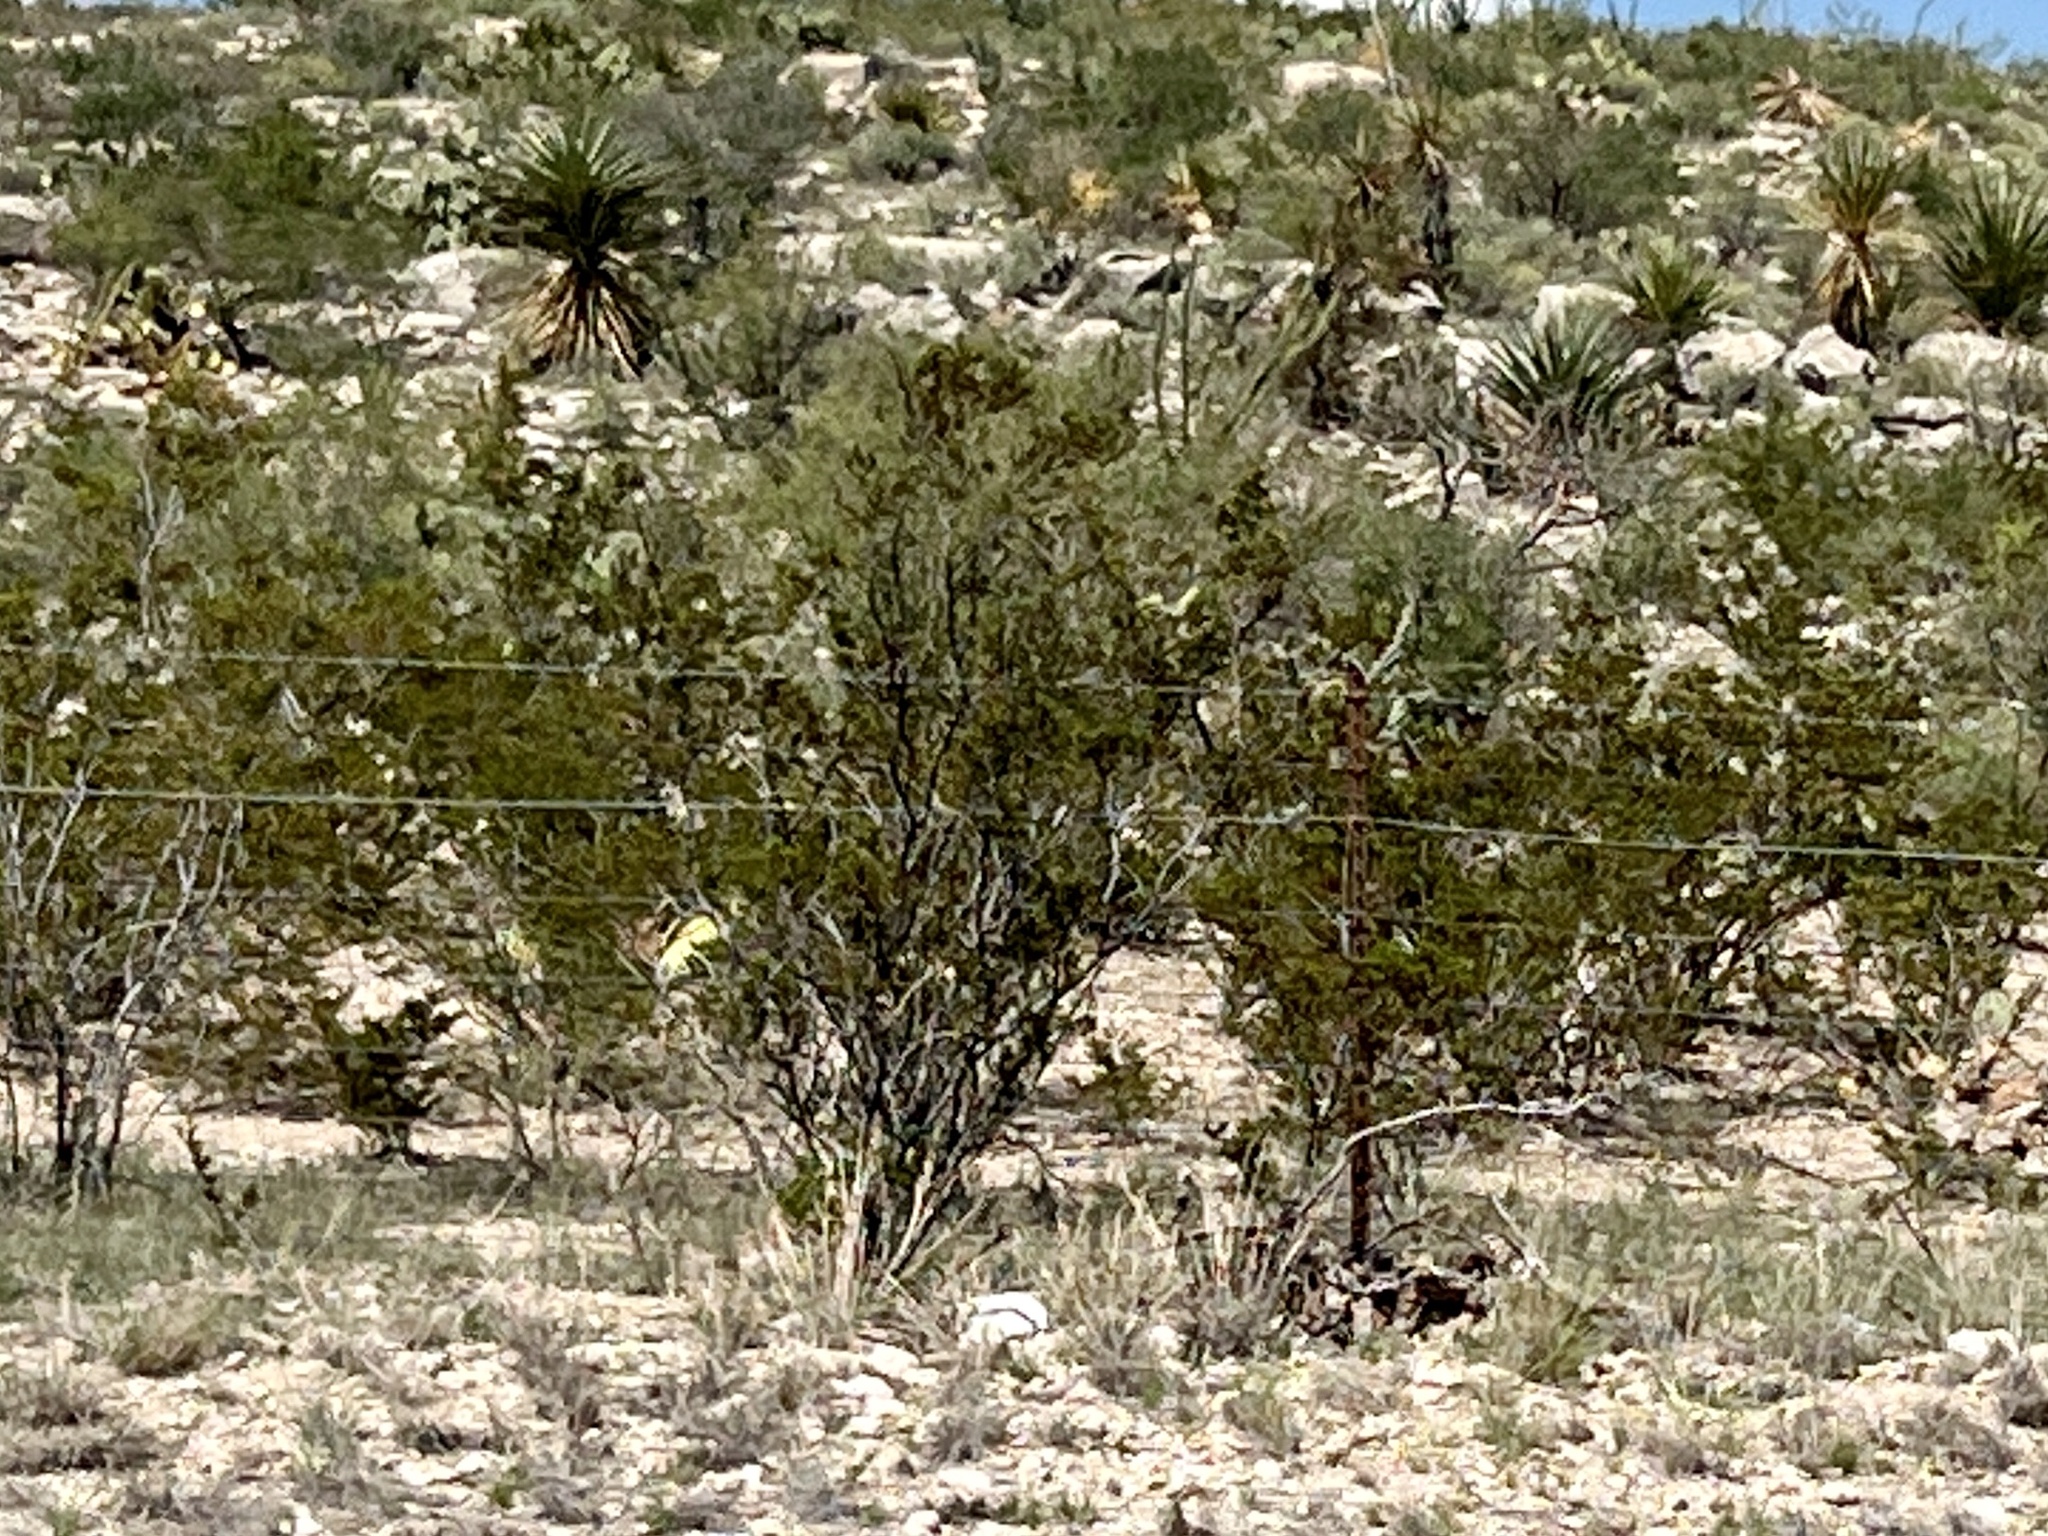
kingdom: Plantae
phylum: Tracheophyta
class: Magnoliopsida
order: Zygophyllales
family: Zygophyllaceae
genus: Larrea
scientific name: Larrea tridentata
